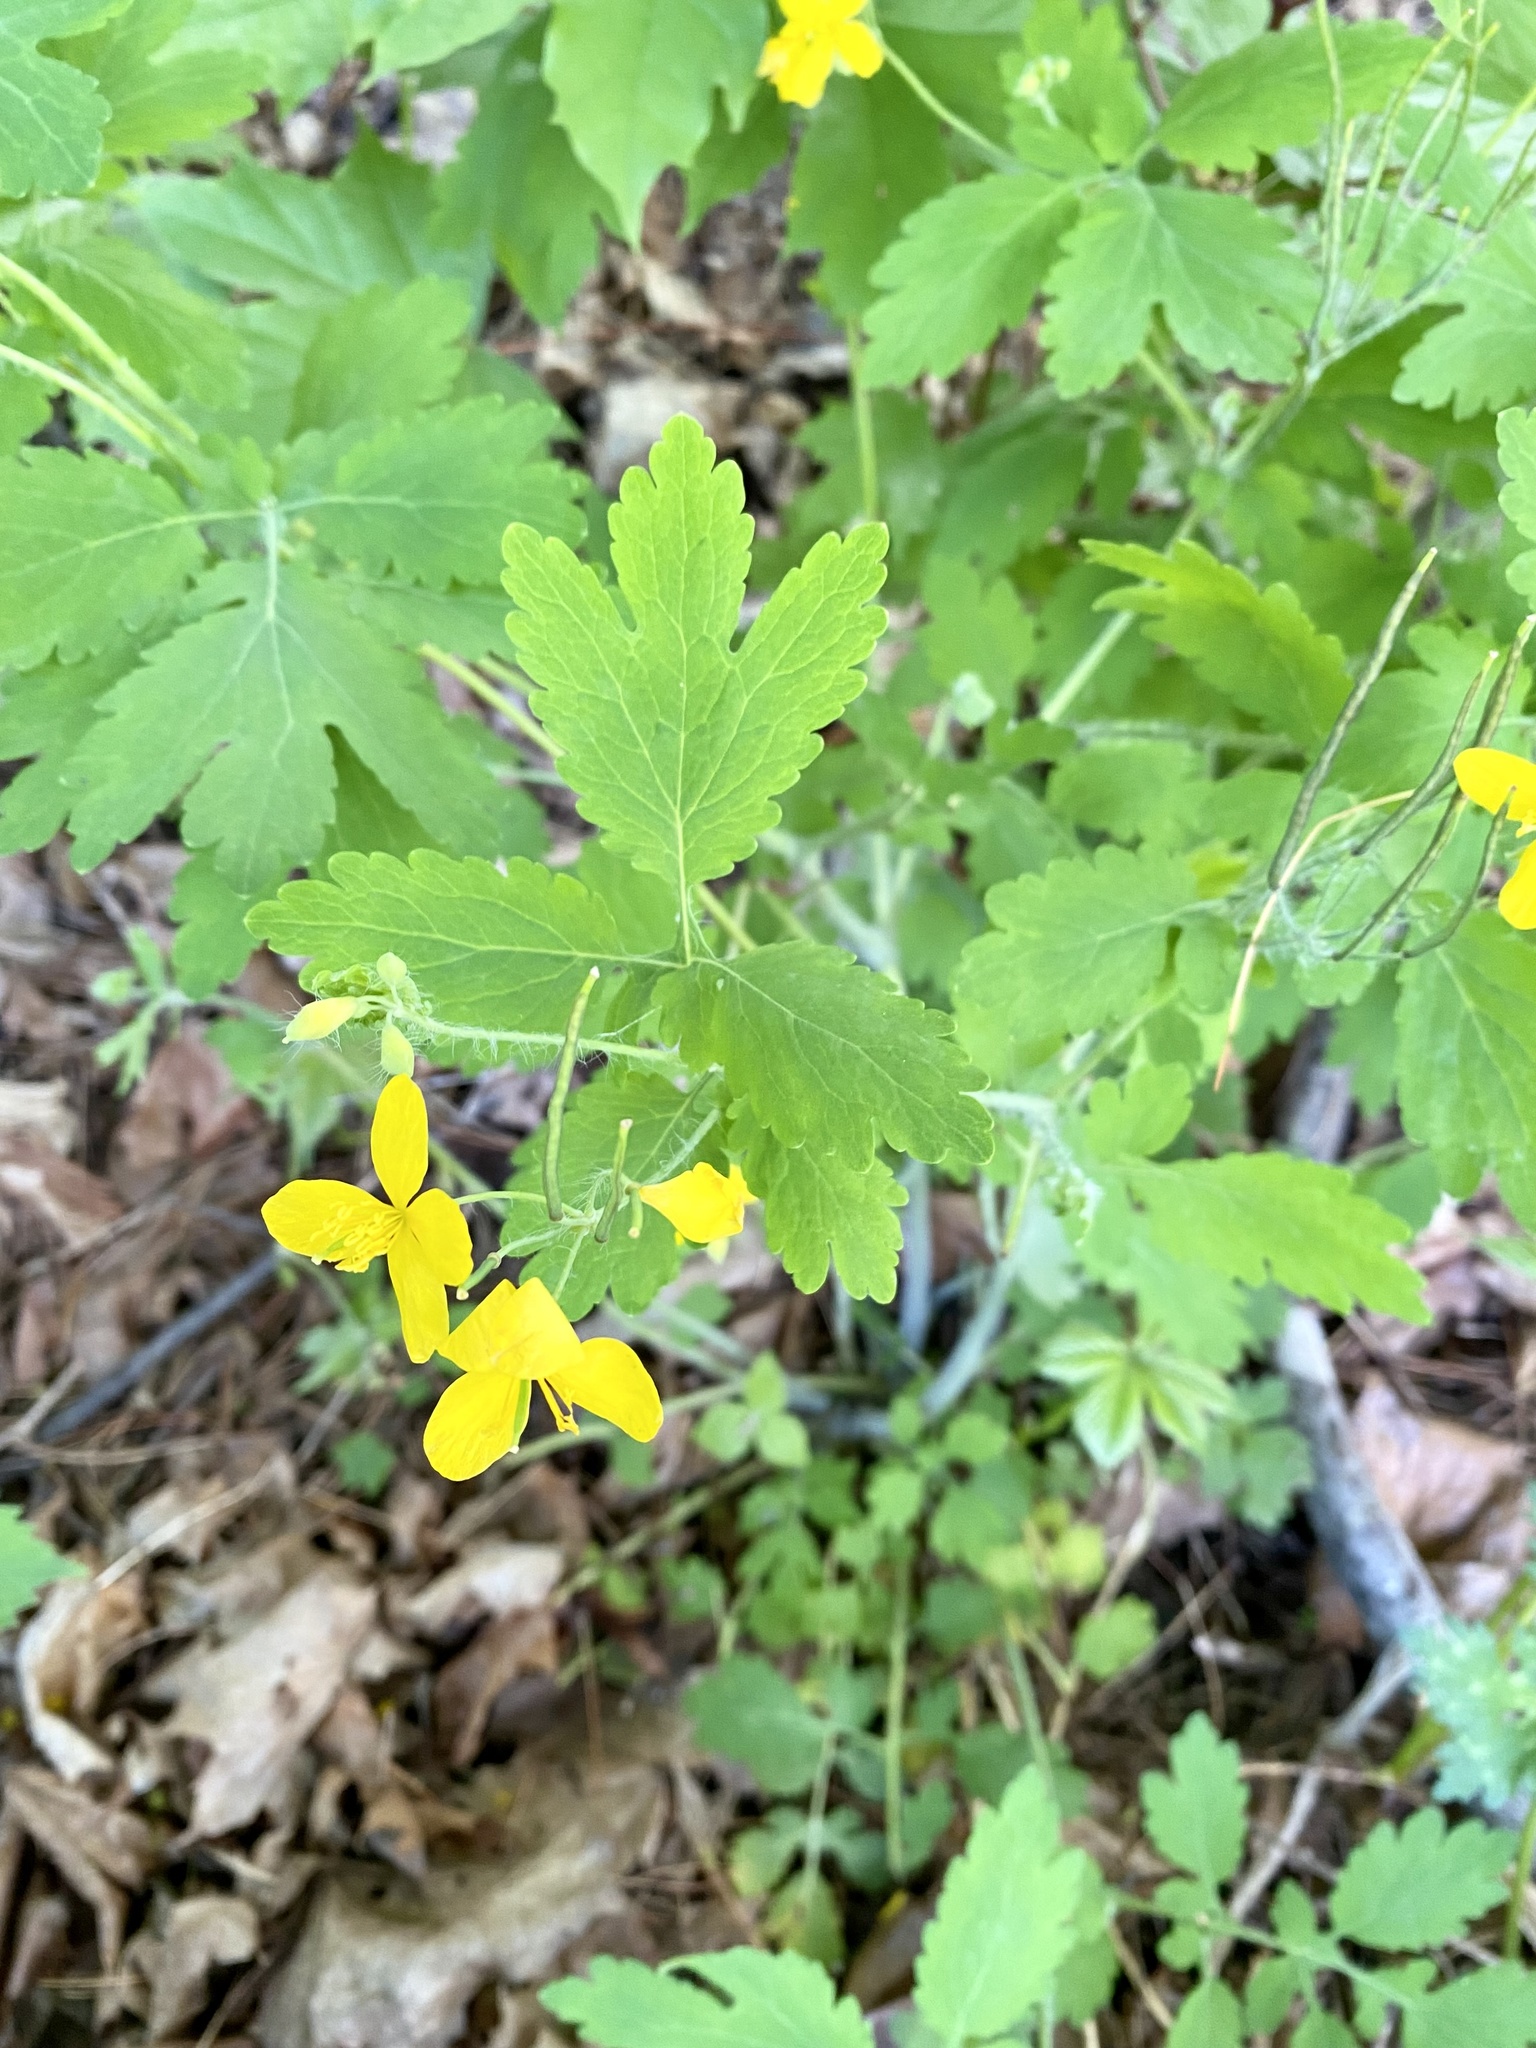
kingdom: Plantae
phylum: Tracheophyta
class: Magnoliopsida
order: Ranunculales
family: Papaveraceae
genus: Chelidonium
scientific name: Chelidonium majus
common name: Greater celandine
